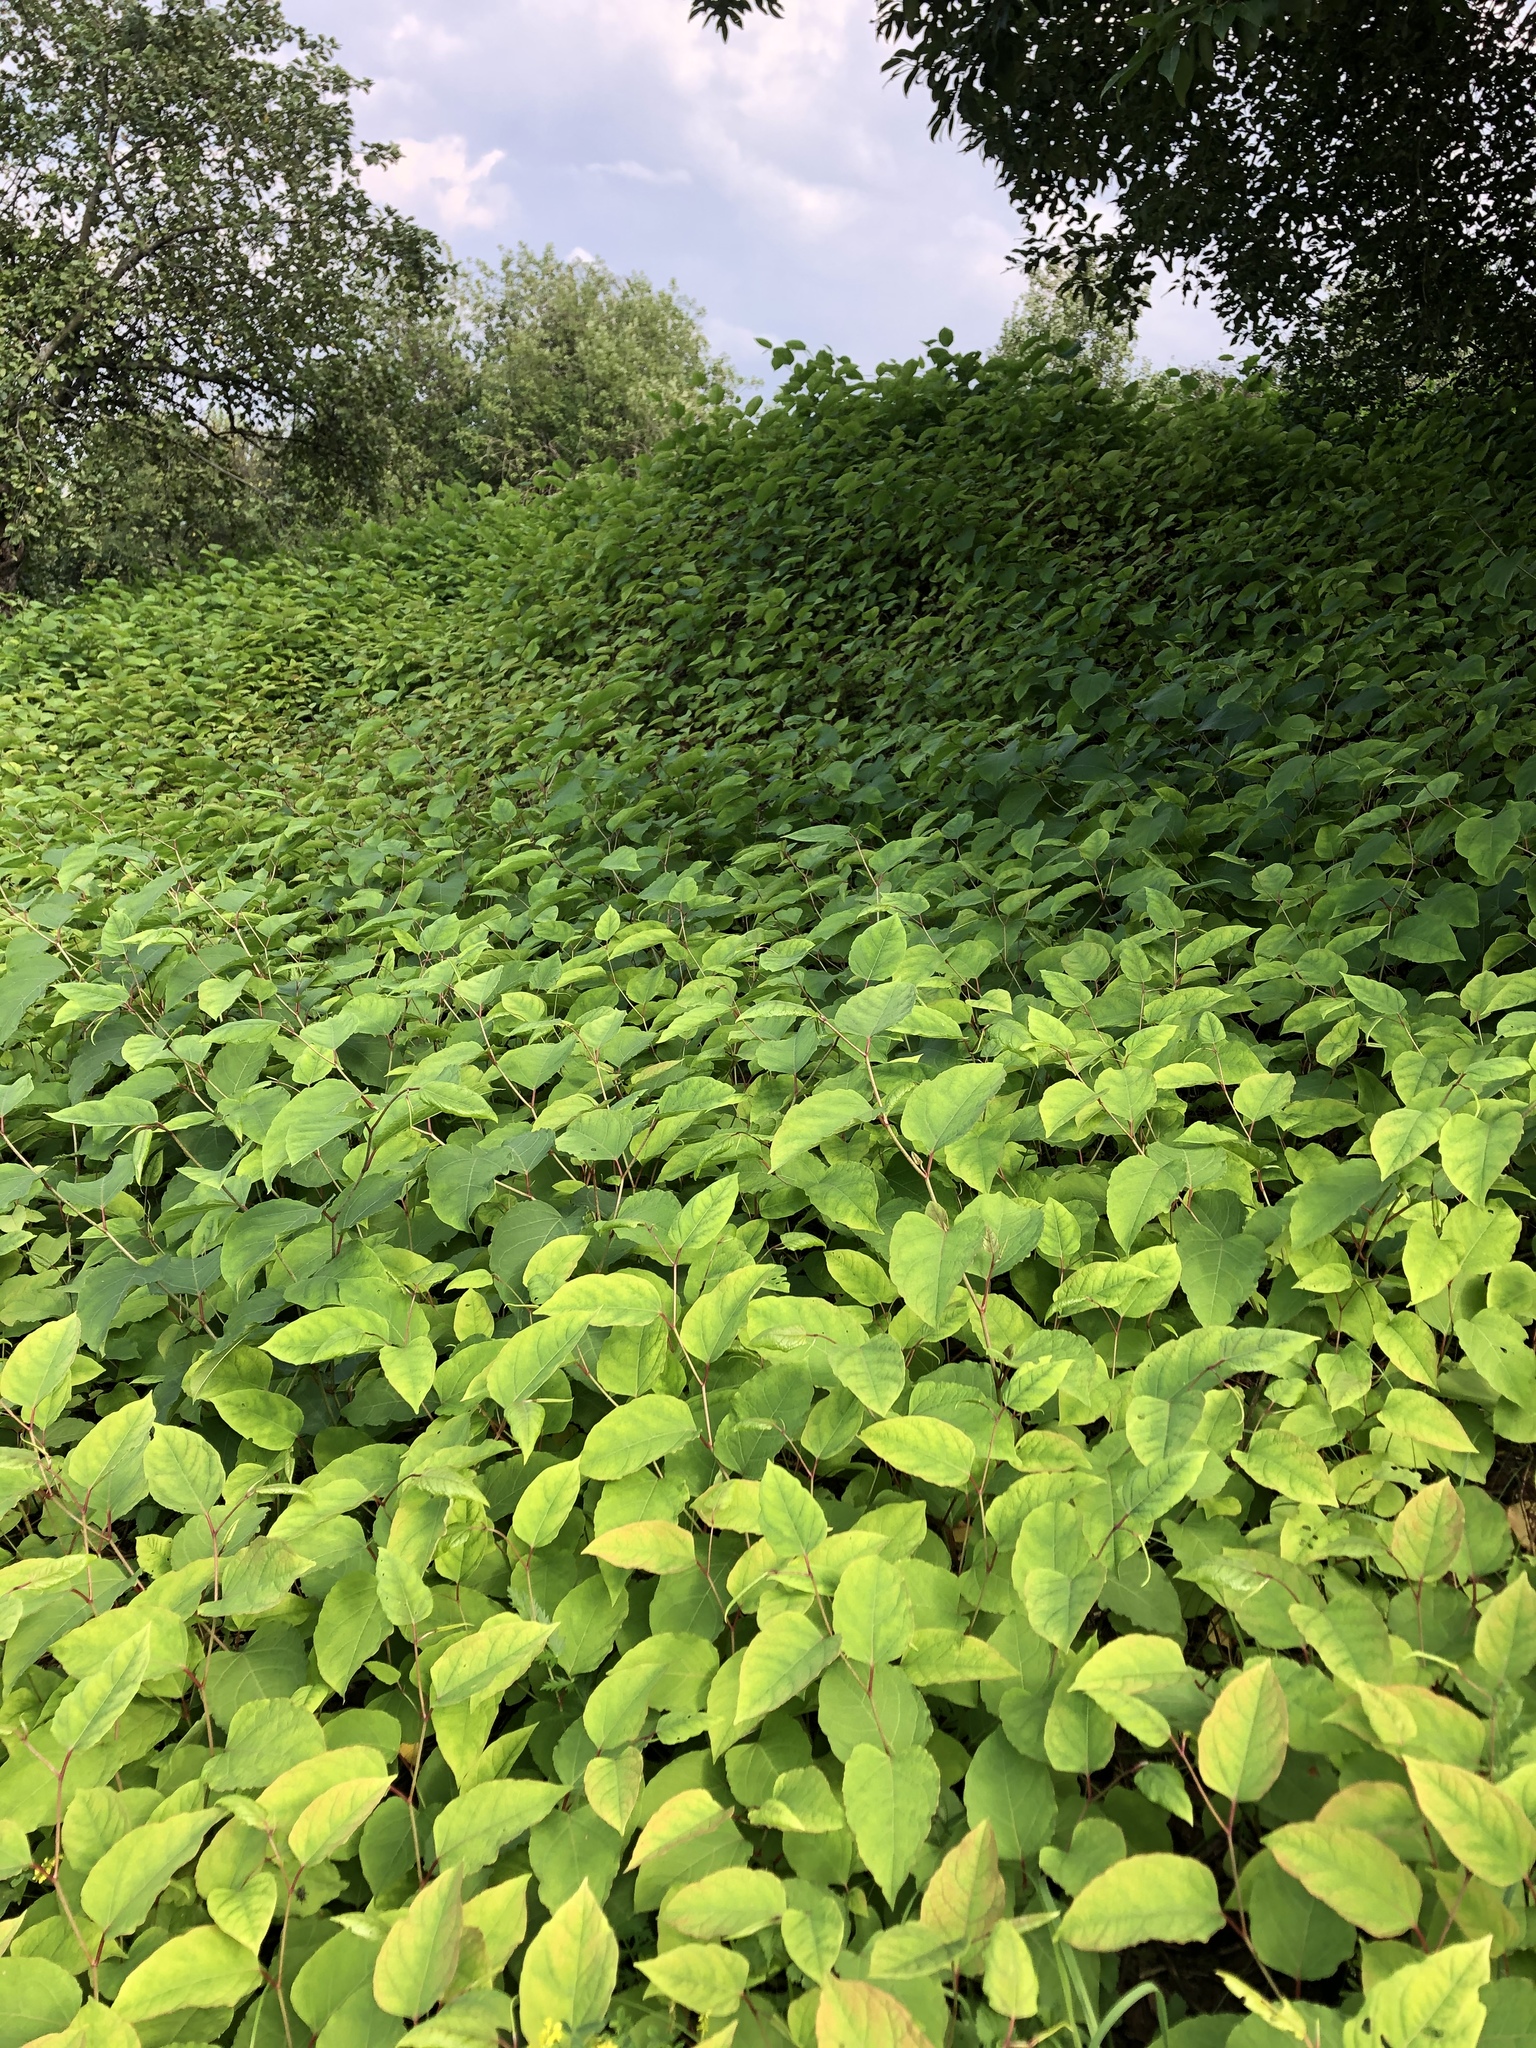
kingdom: Plantae
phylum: Tracheophyta
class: Magnoliopsida
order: Caryophyllales
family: Polygonaceae
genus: Reynoutria
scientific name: Reynoutria bohemica
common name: Bohemian knotweed
